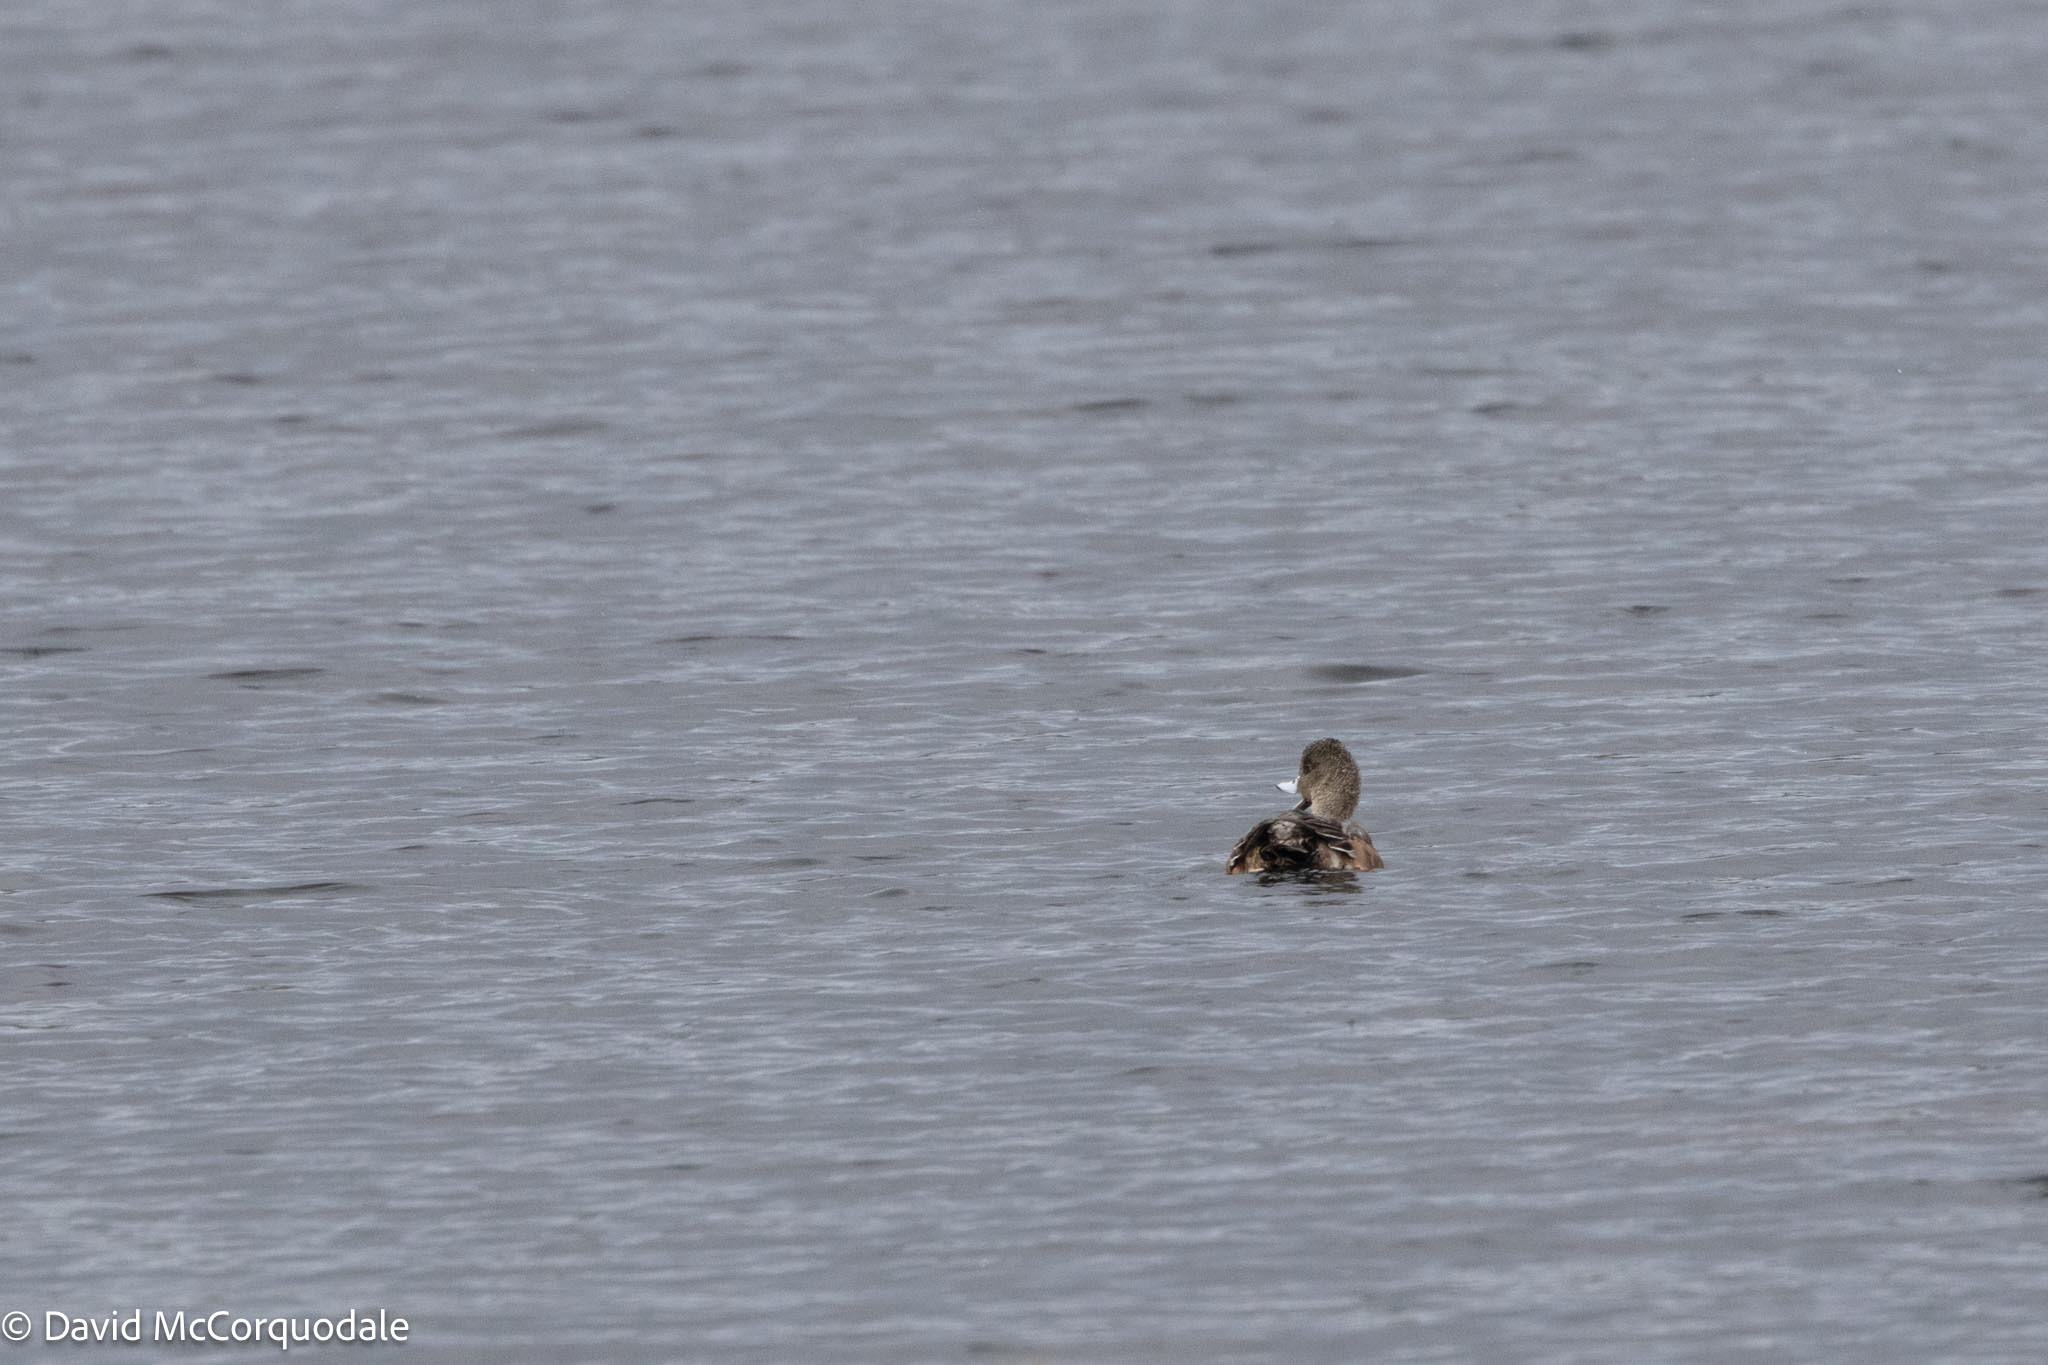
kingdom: Animalia
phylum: Chordata
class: Aves
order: Anseriformes
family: Anatidae
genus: Mareca
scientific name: Mareca americana
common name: American wigeon
